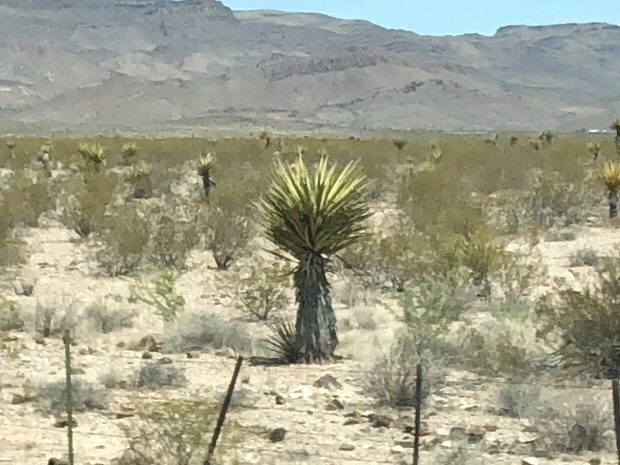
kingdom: Plantae
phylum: Tracheophyta
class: Liliopsida
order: Asparagales
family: Asparagaceae
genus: Yucca
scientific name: Yucca schidigera
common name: Mojave yucca
